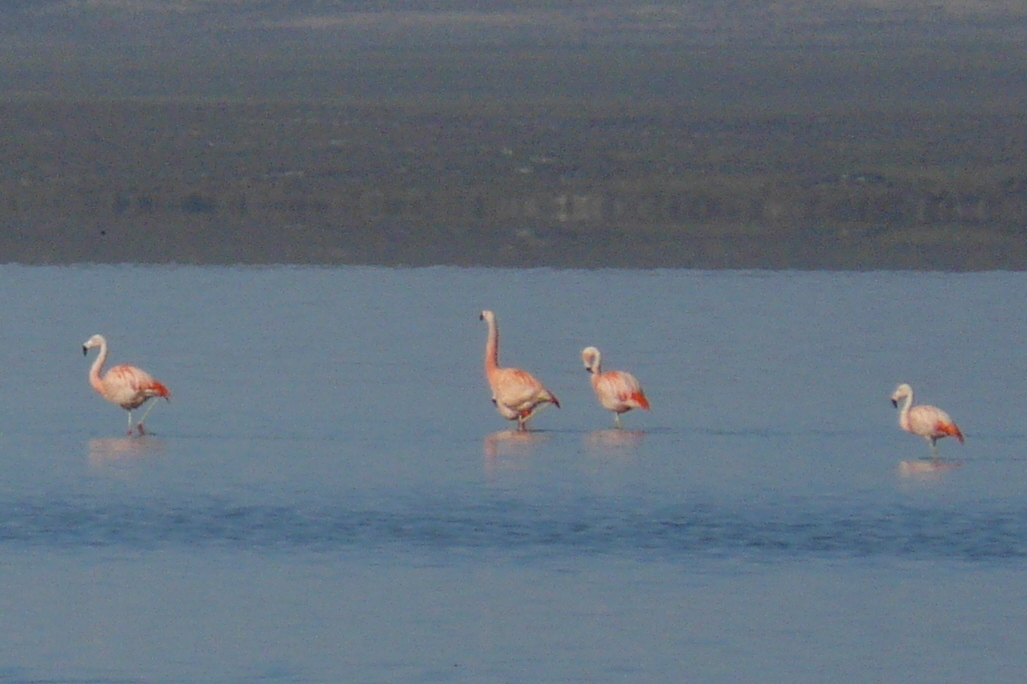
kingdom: Animalia
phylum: Chordata
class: Aves
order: Phoenicopteriformes
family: Phoenicopteridae
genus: Phoenicopterus
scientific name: Phoenicopterus chilensis
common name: Chilean flamingo
